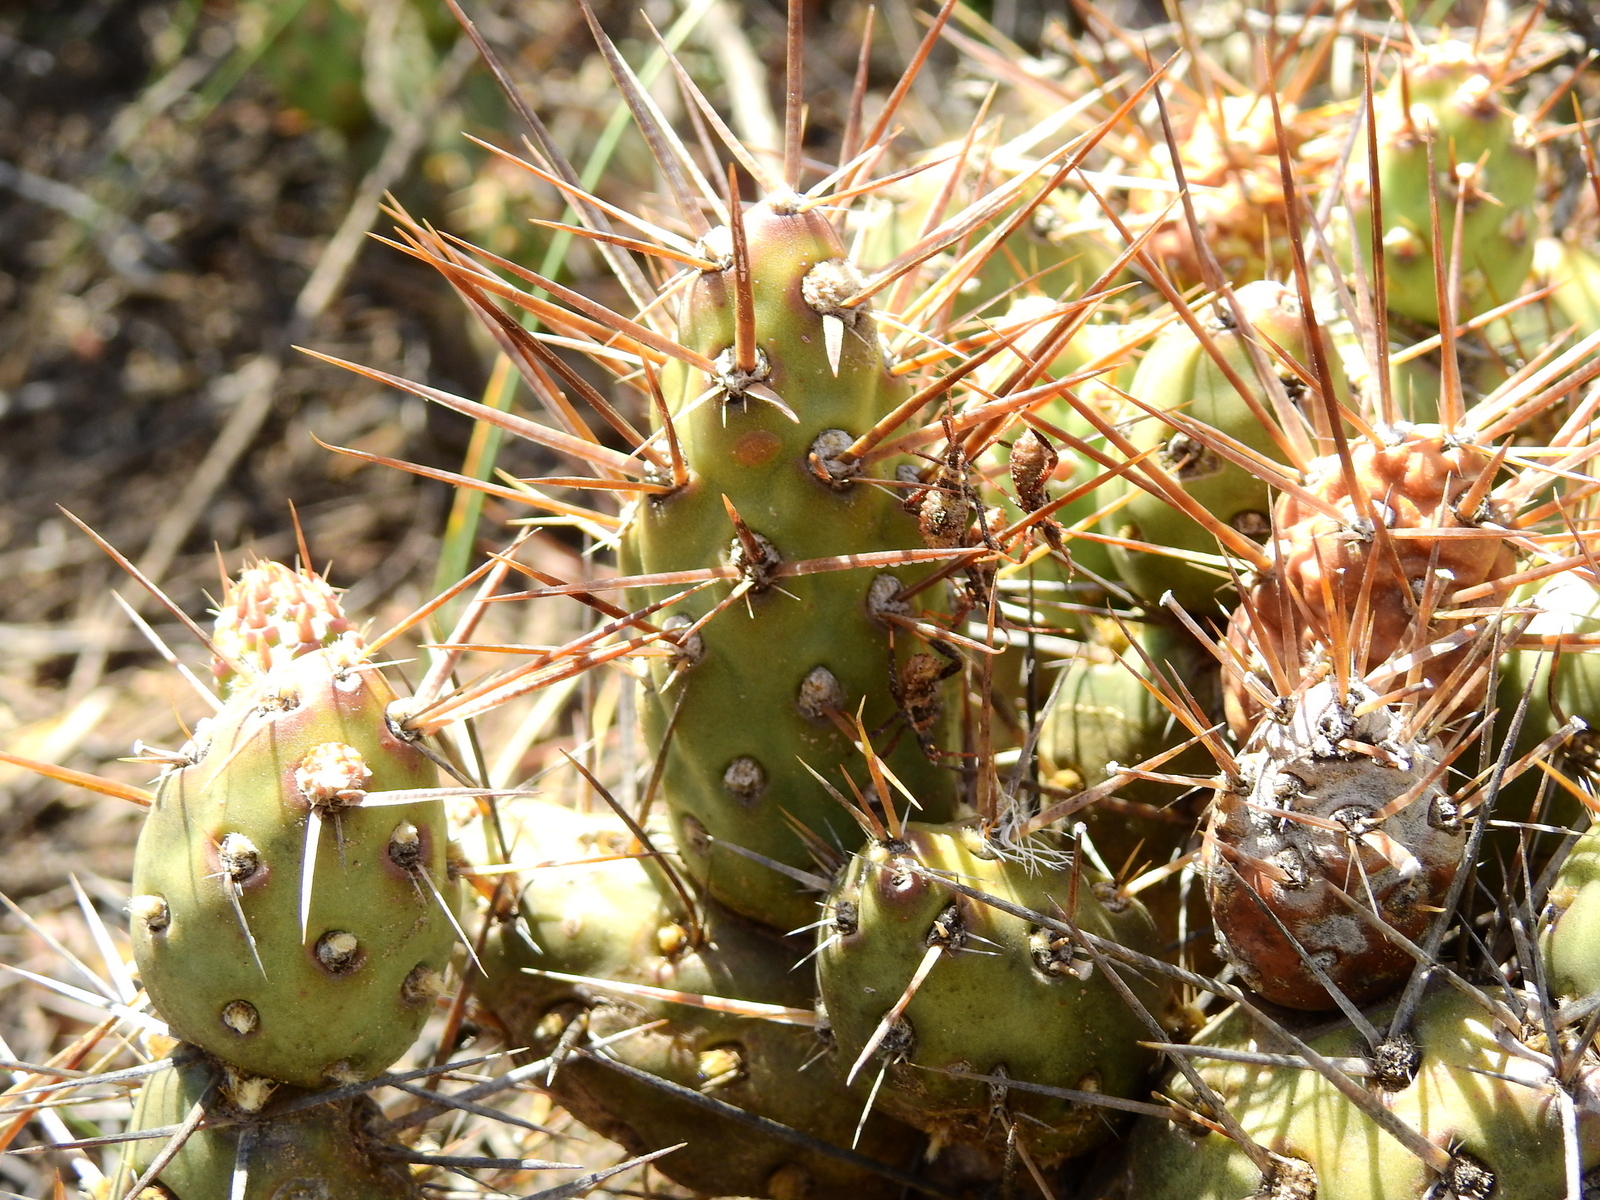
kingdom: Plantae
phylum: Tracheophyta
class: Magnoliopsida
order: Caryophyllales
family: Cactaceae
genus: Maihueniopsis
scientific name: Maihueniopsis ovata
